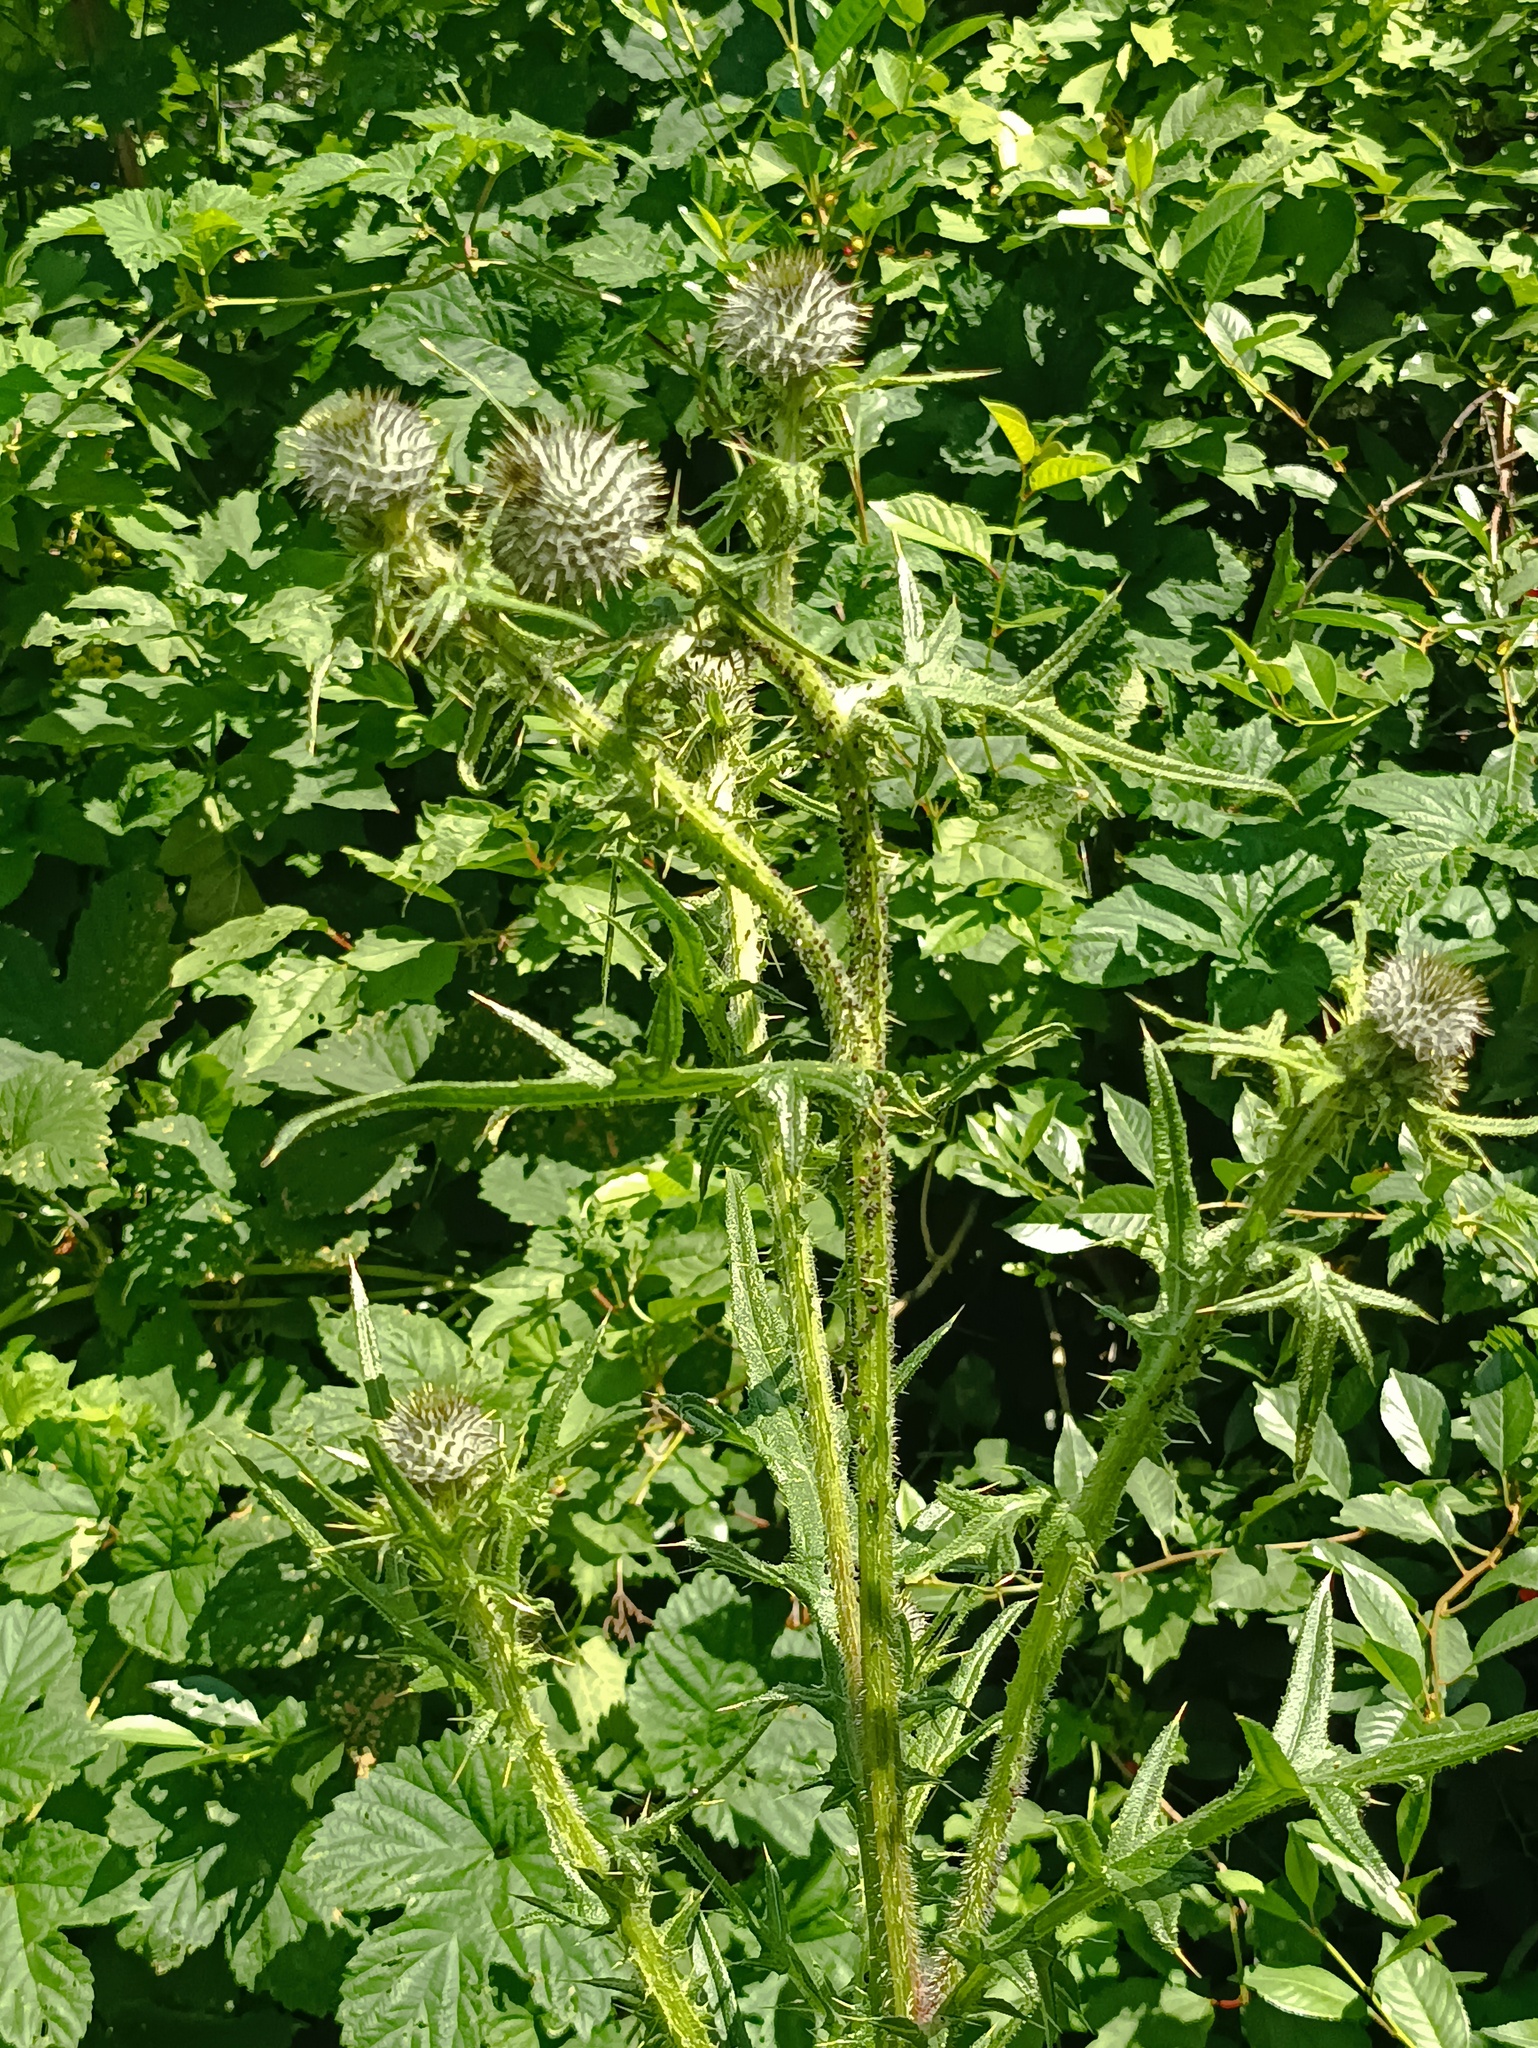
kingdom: Plantae
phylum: Tracheophyta
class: Magnoliopsida
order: Asterales
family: Asteraceae
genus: Cirsium
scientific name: Cirsium vulgare
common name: Bull thistle
